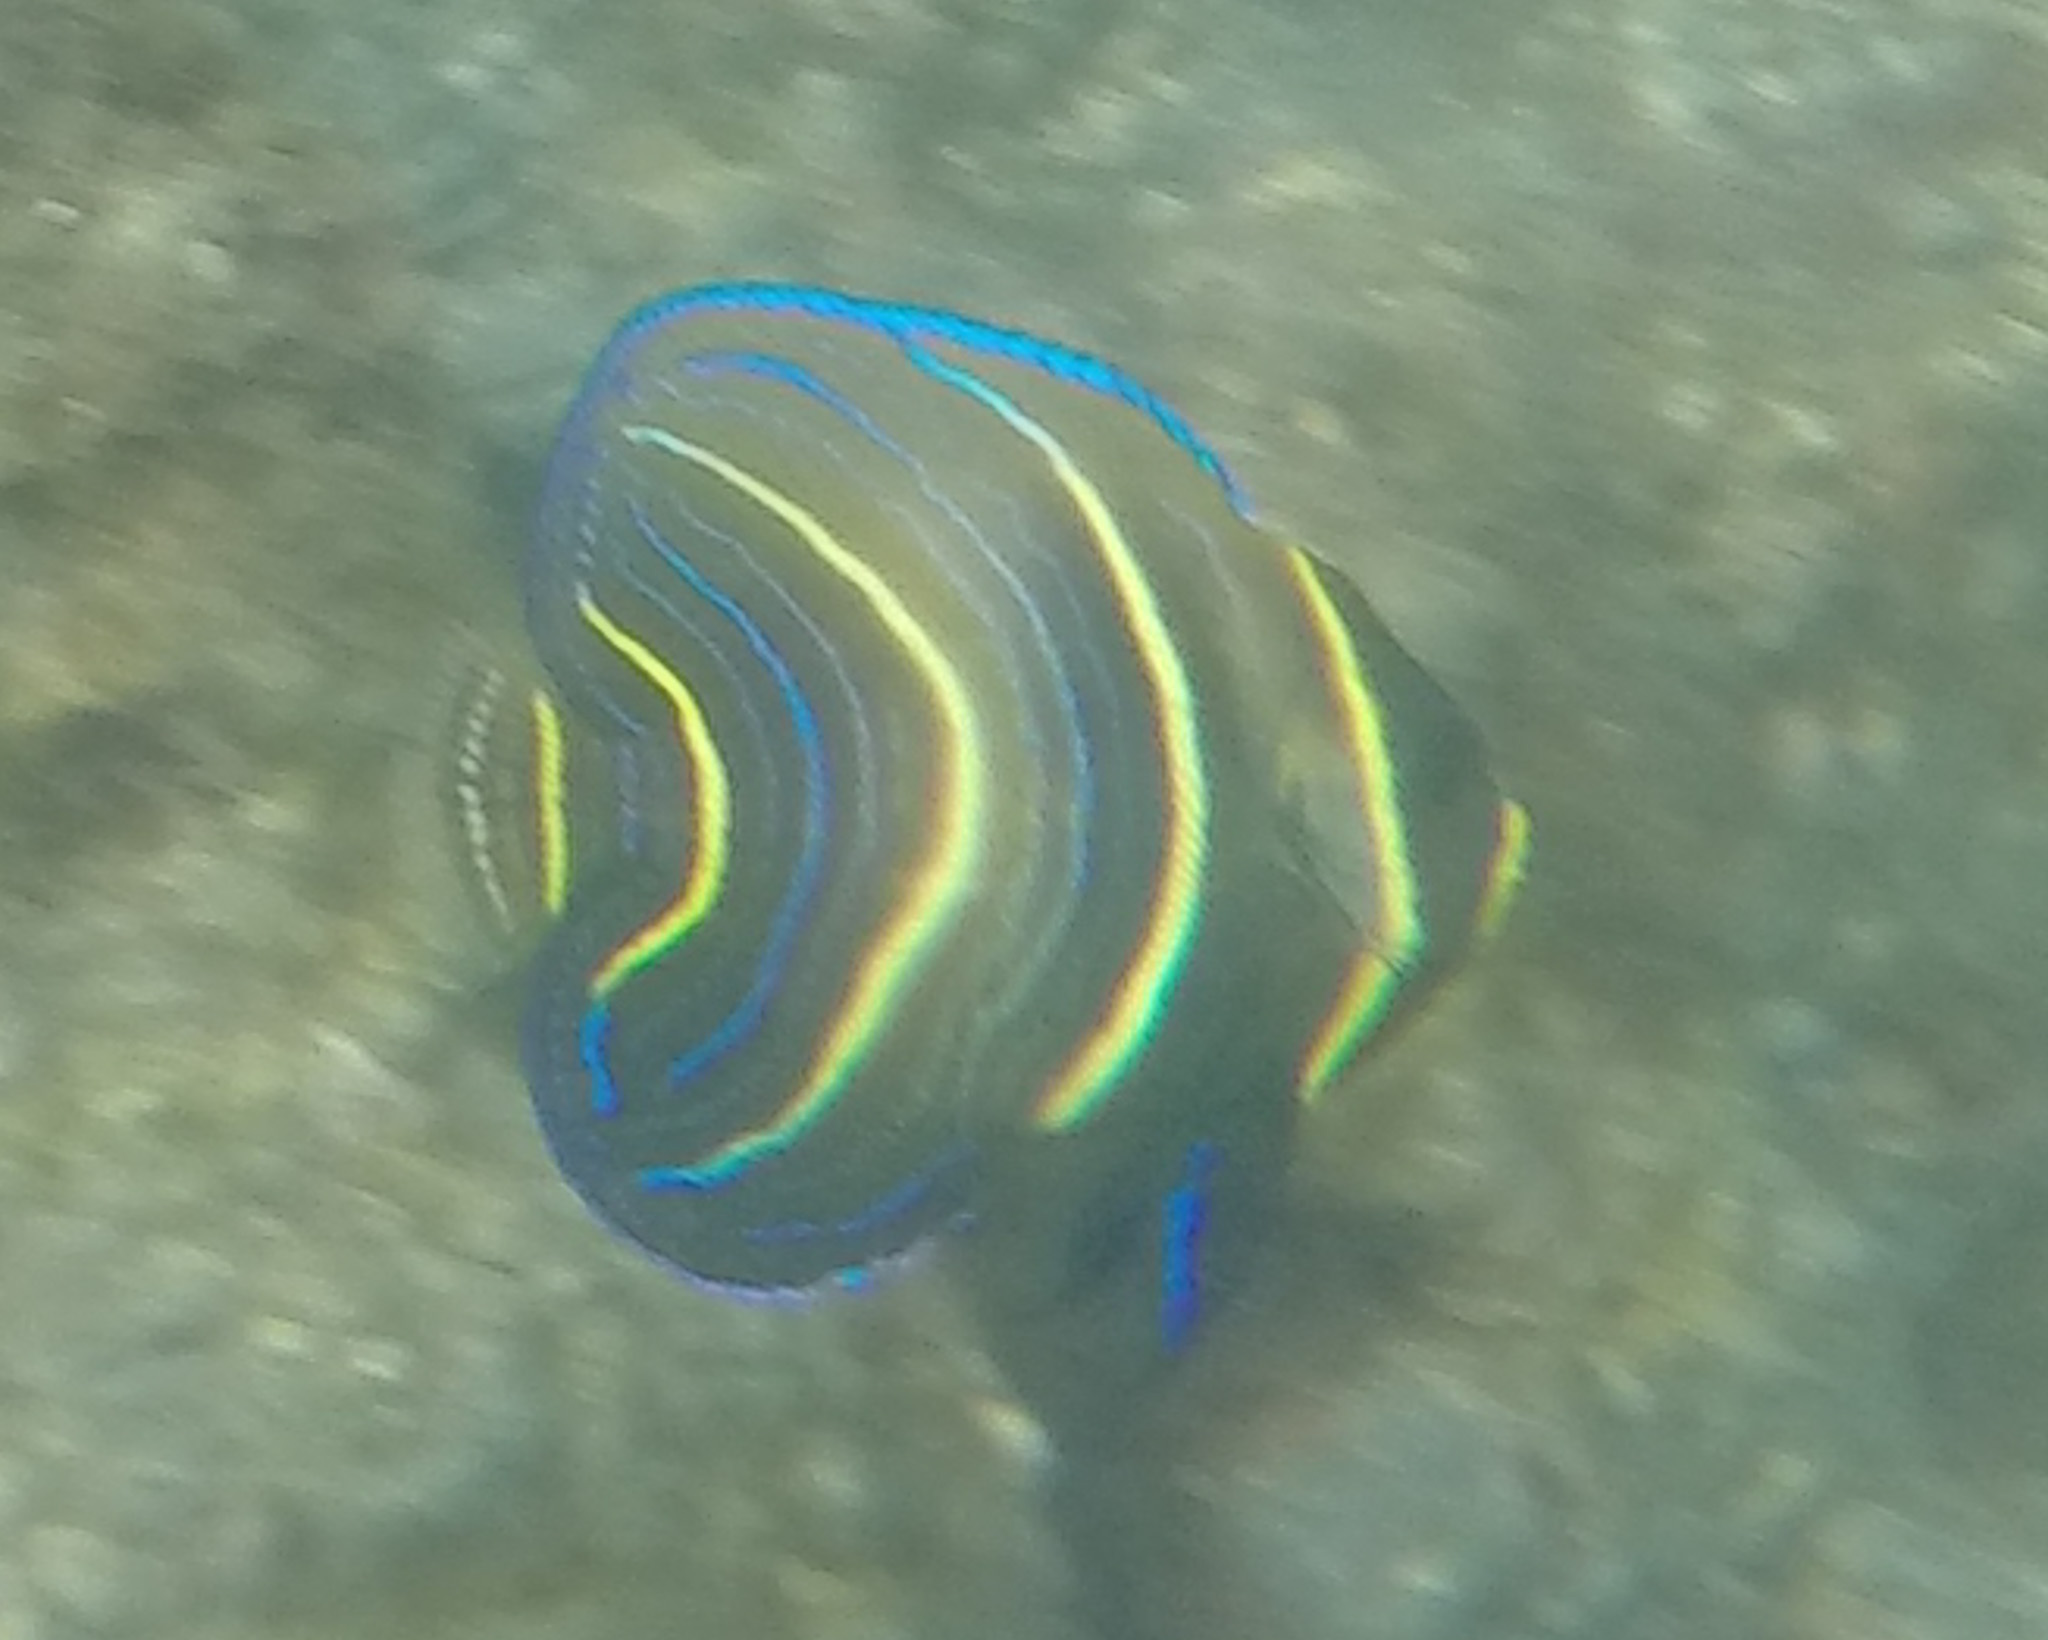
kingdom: Animalia
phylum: Chordata
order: Perciformes
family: Pomacanthidae
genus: Pomacanthus
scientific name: Pomacanthus zonipectus
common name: Cortez angelfish
